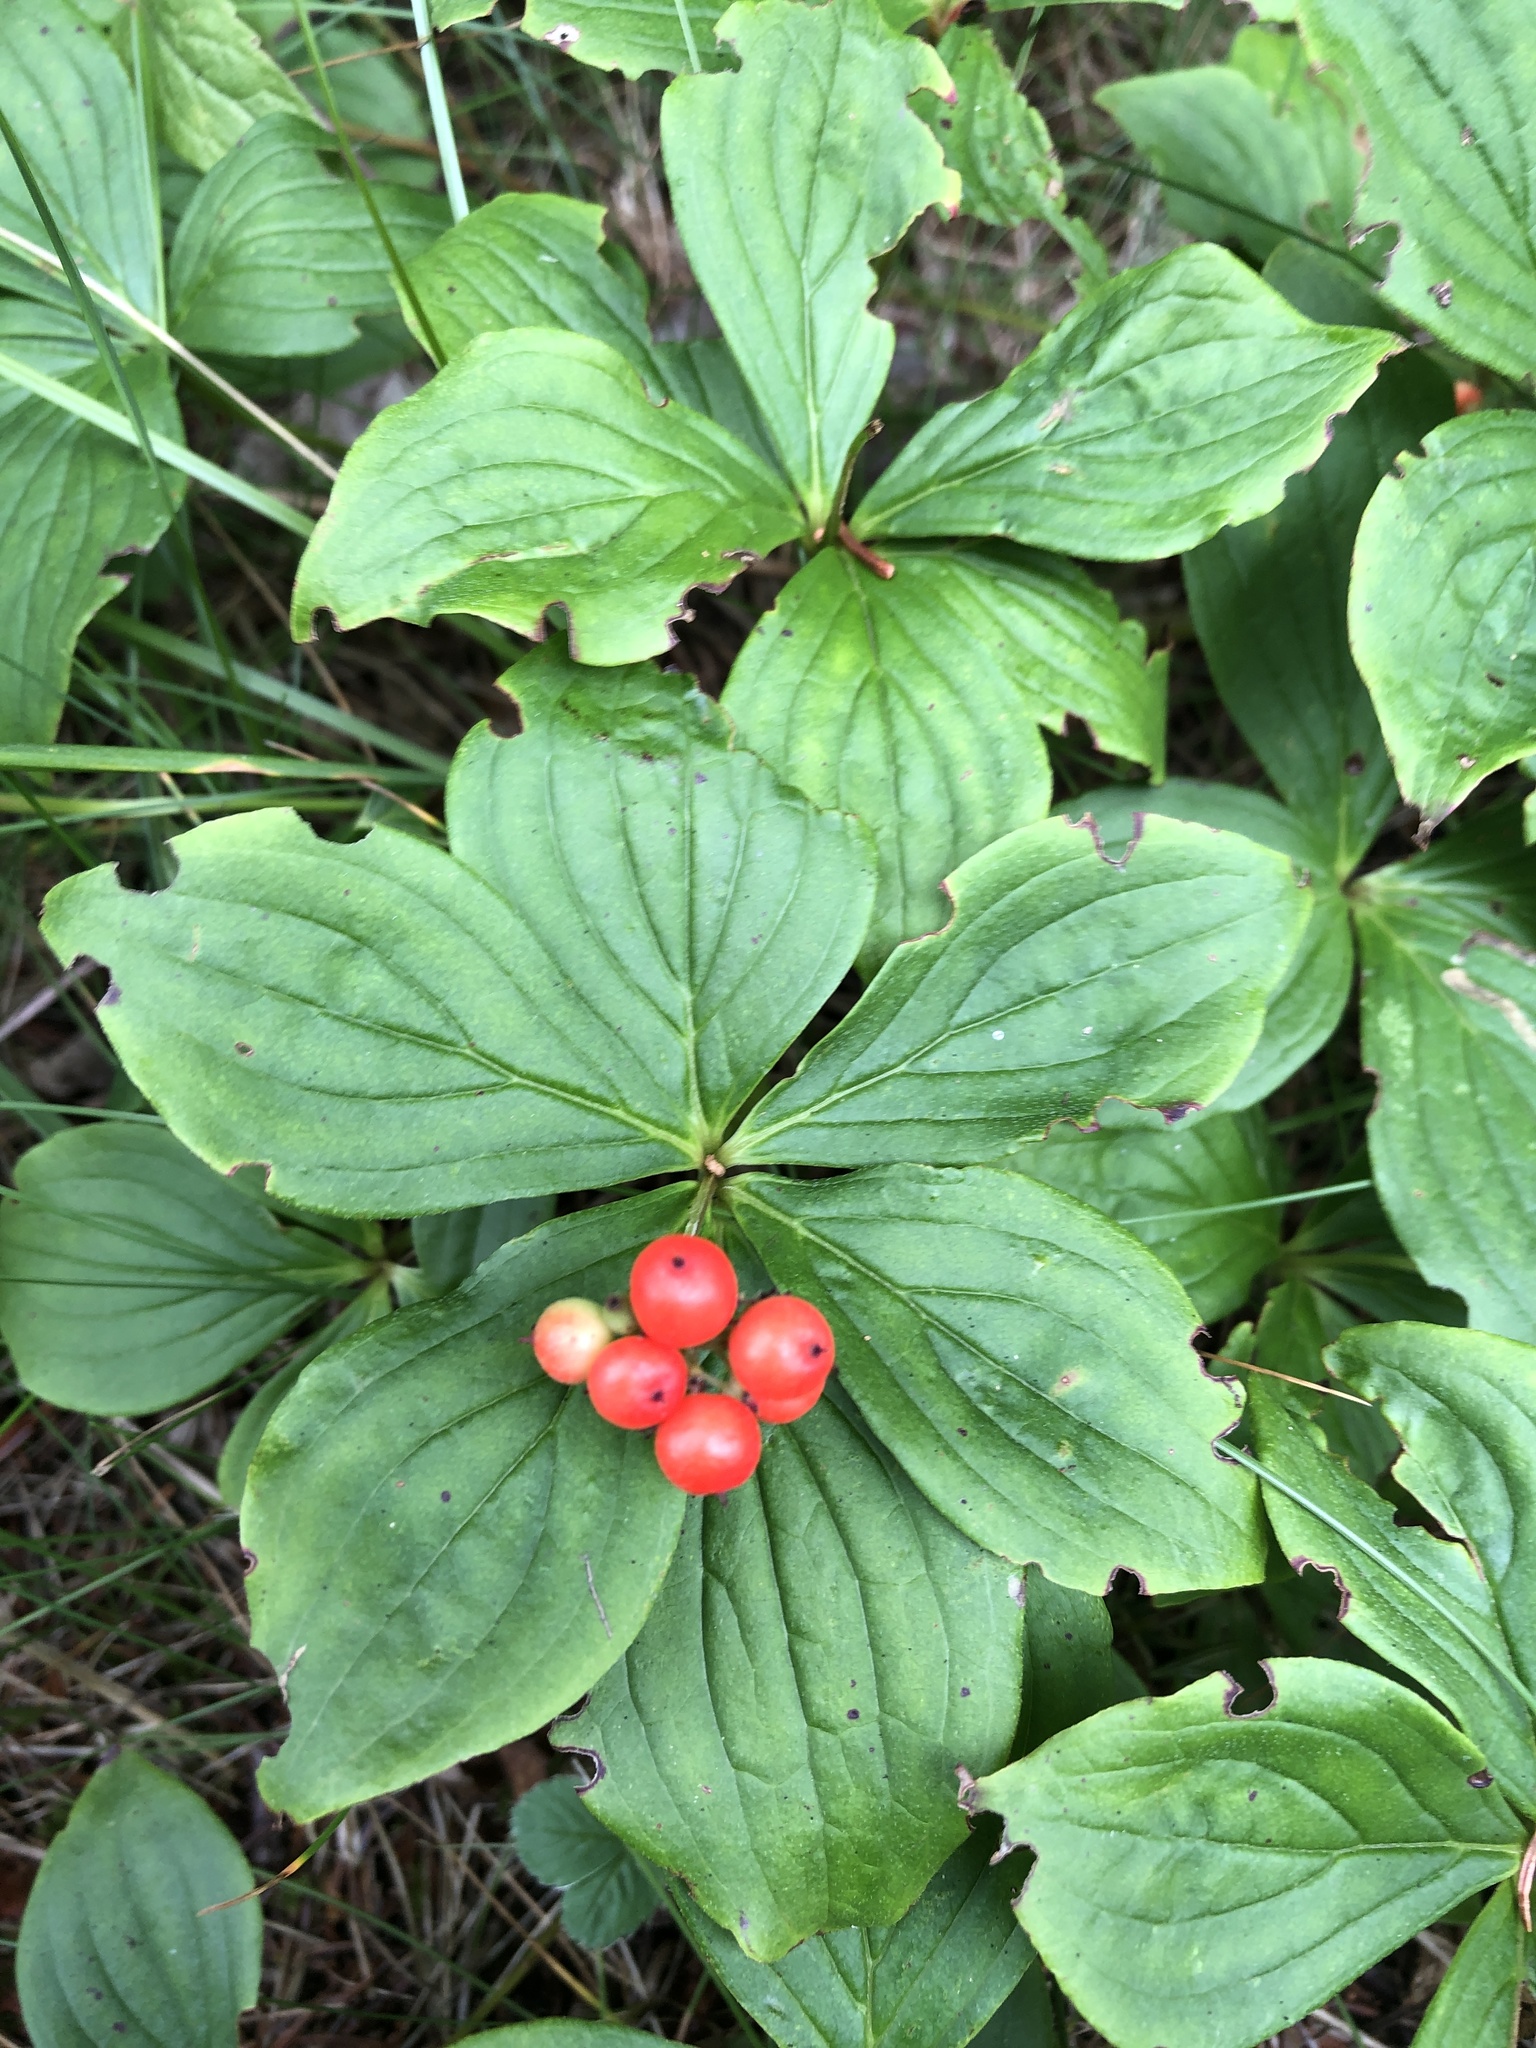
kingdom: Plantae
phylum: Tracheophyta
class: Magnoliopsida
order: Cornales
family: Cornaceae
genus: Cornus
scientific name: Cornus canadensis
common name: Creeping dogwood
